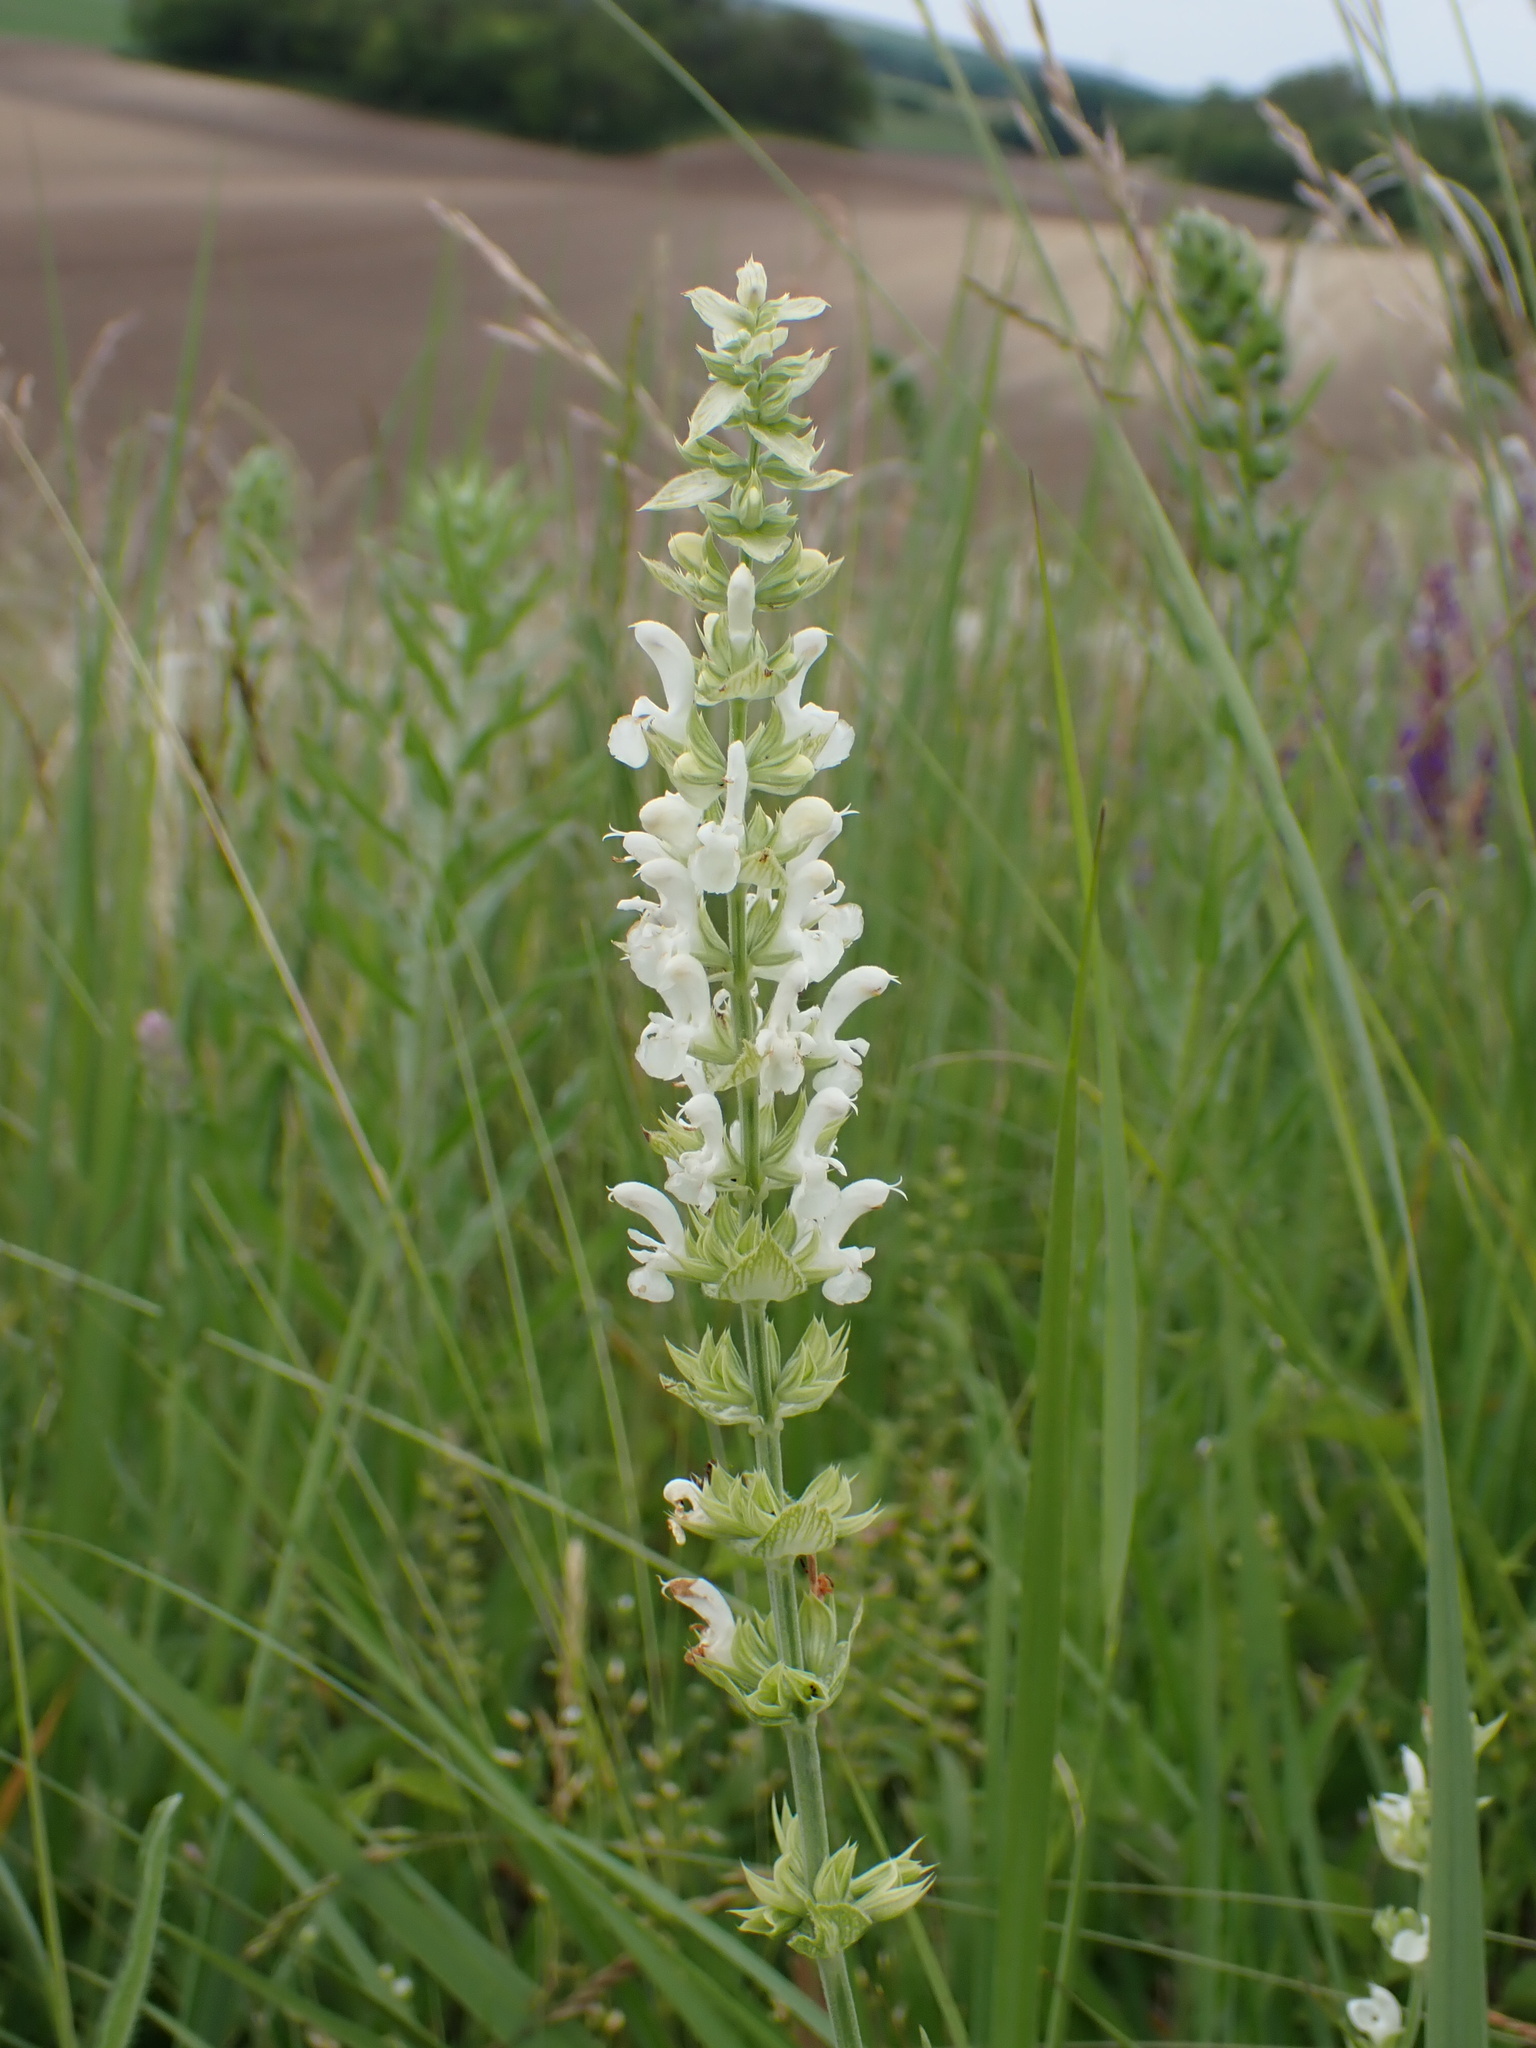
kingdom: Plantae
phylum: Tracheophyta
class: Magnoliopsida
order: Lamiales
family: Lamiaceae
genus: Salvia
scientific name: Salvia nemorosa
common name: Balkan clary
